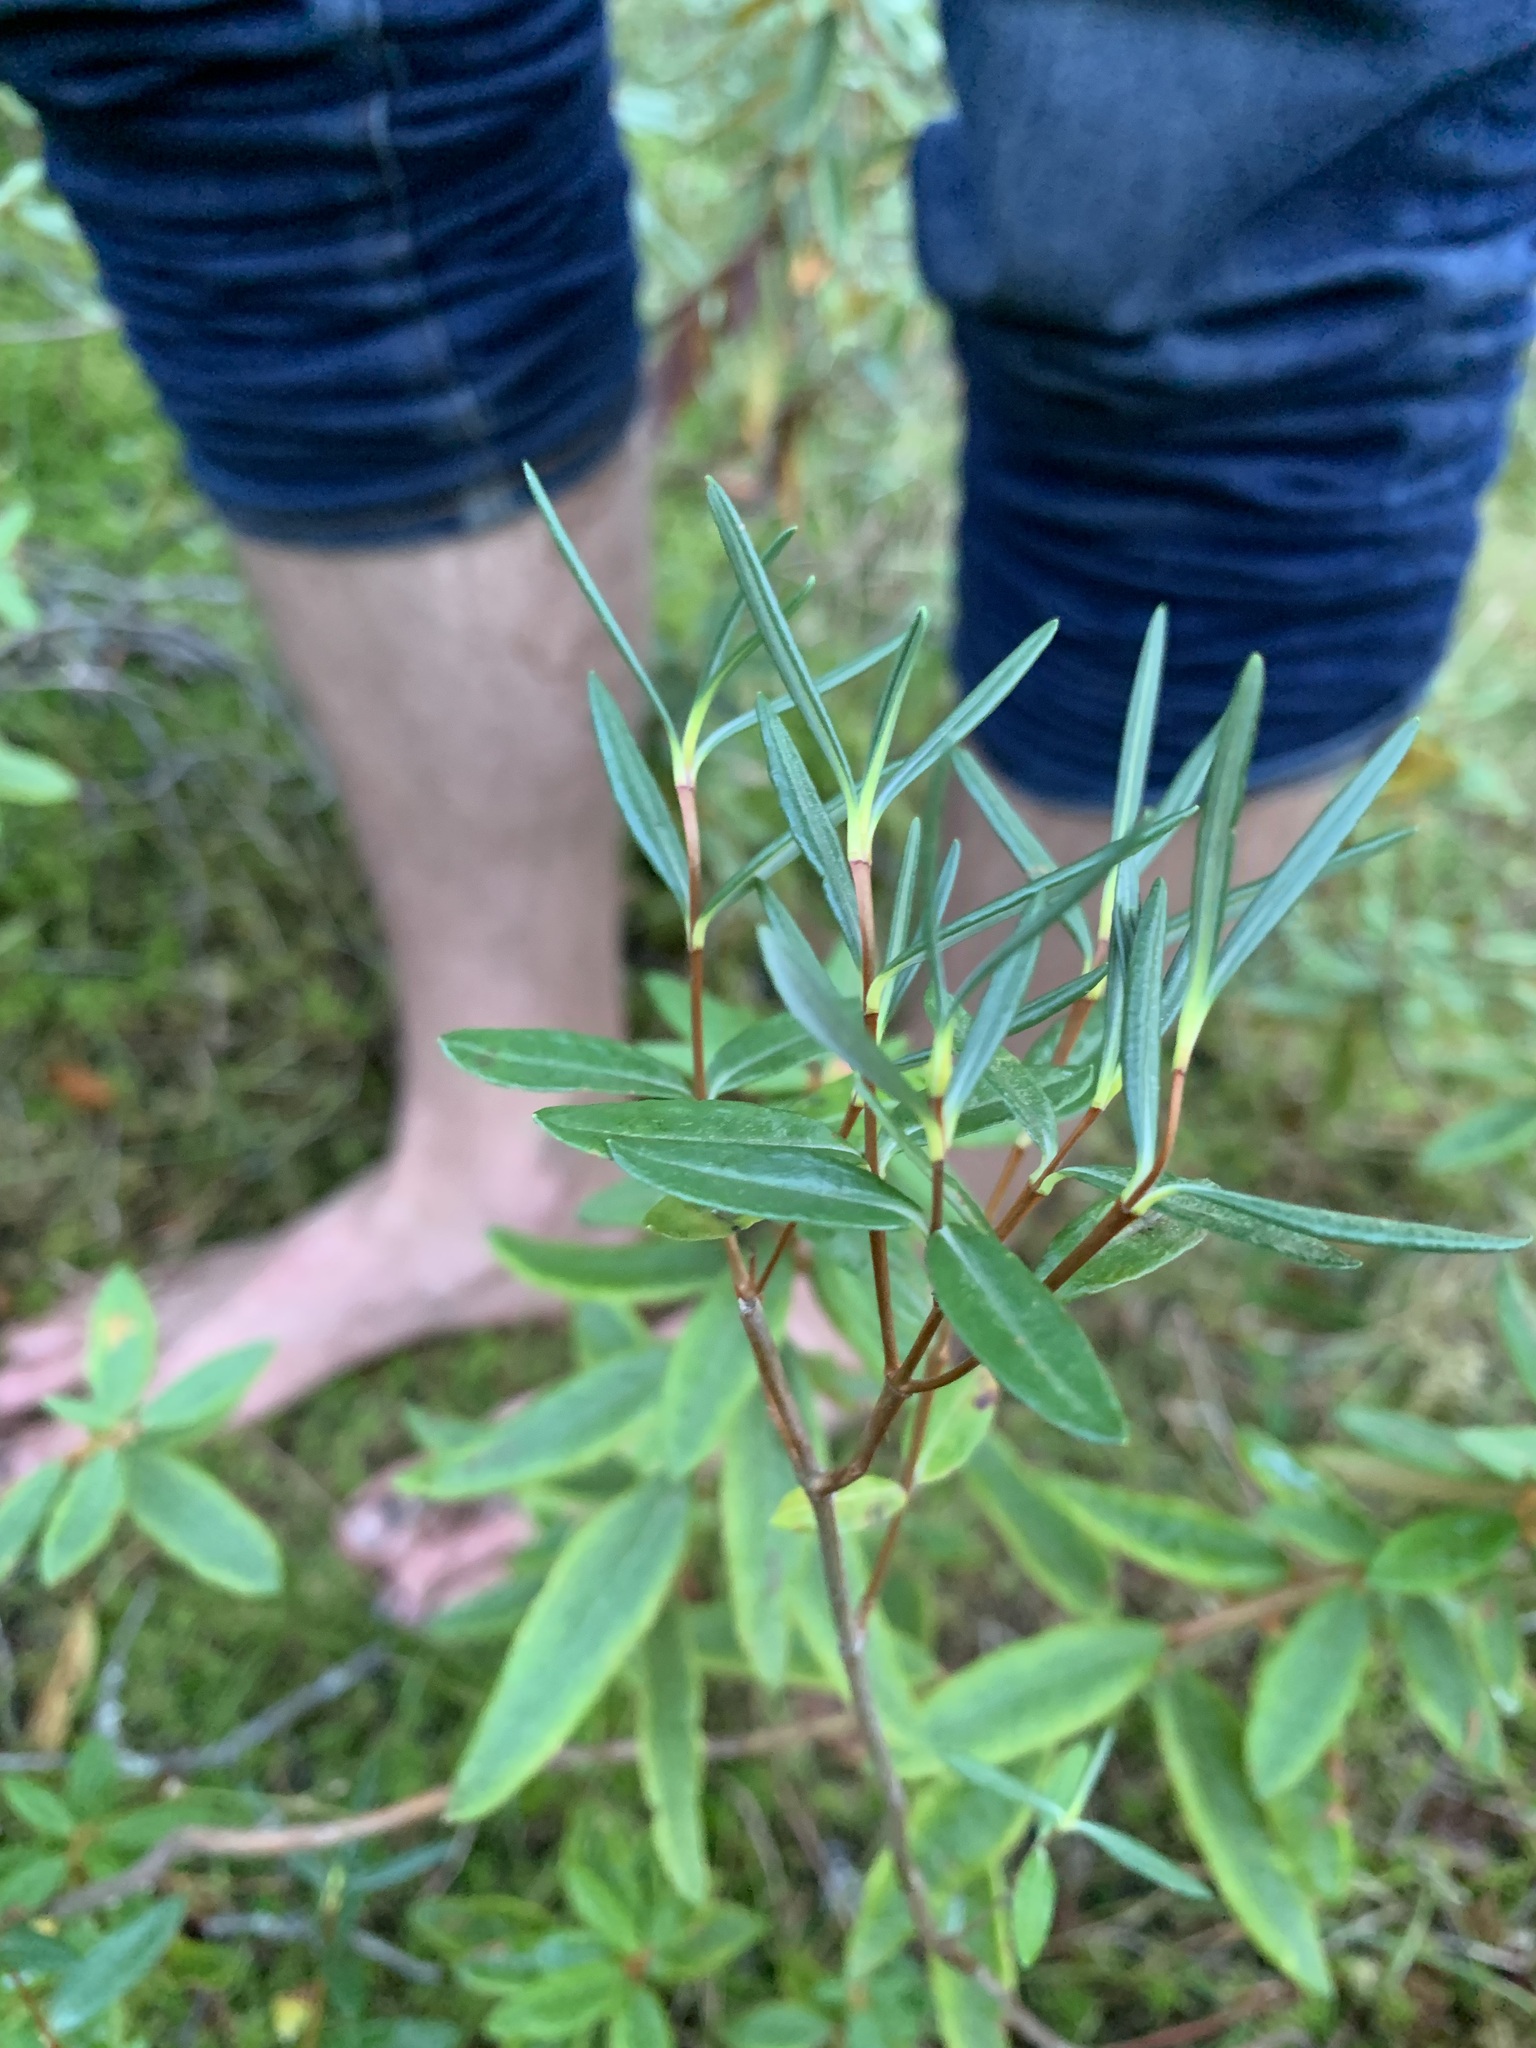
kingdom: Plantae
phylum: Tracheophyta
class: Magnoliopsida
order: Ericales
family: Ericaceae
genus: Kalmia
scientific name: Kalmia polifolia
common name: Bog-laurel
